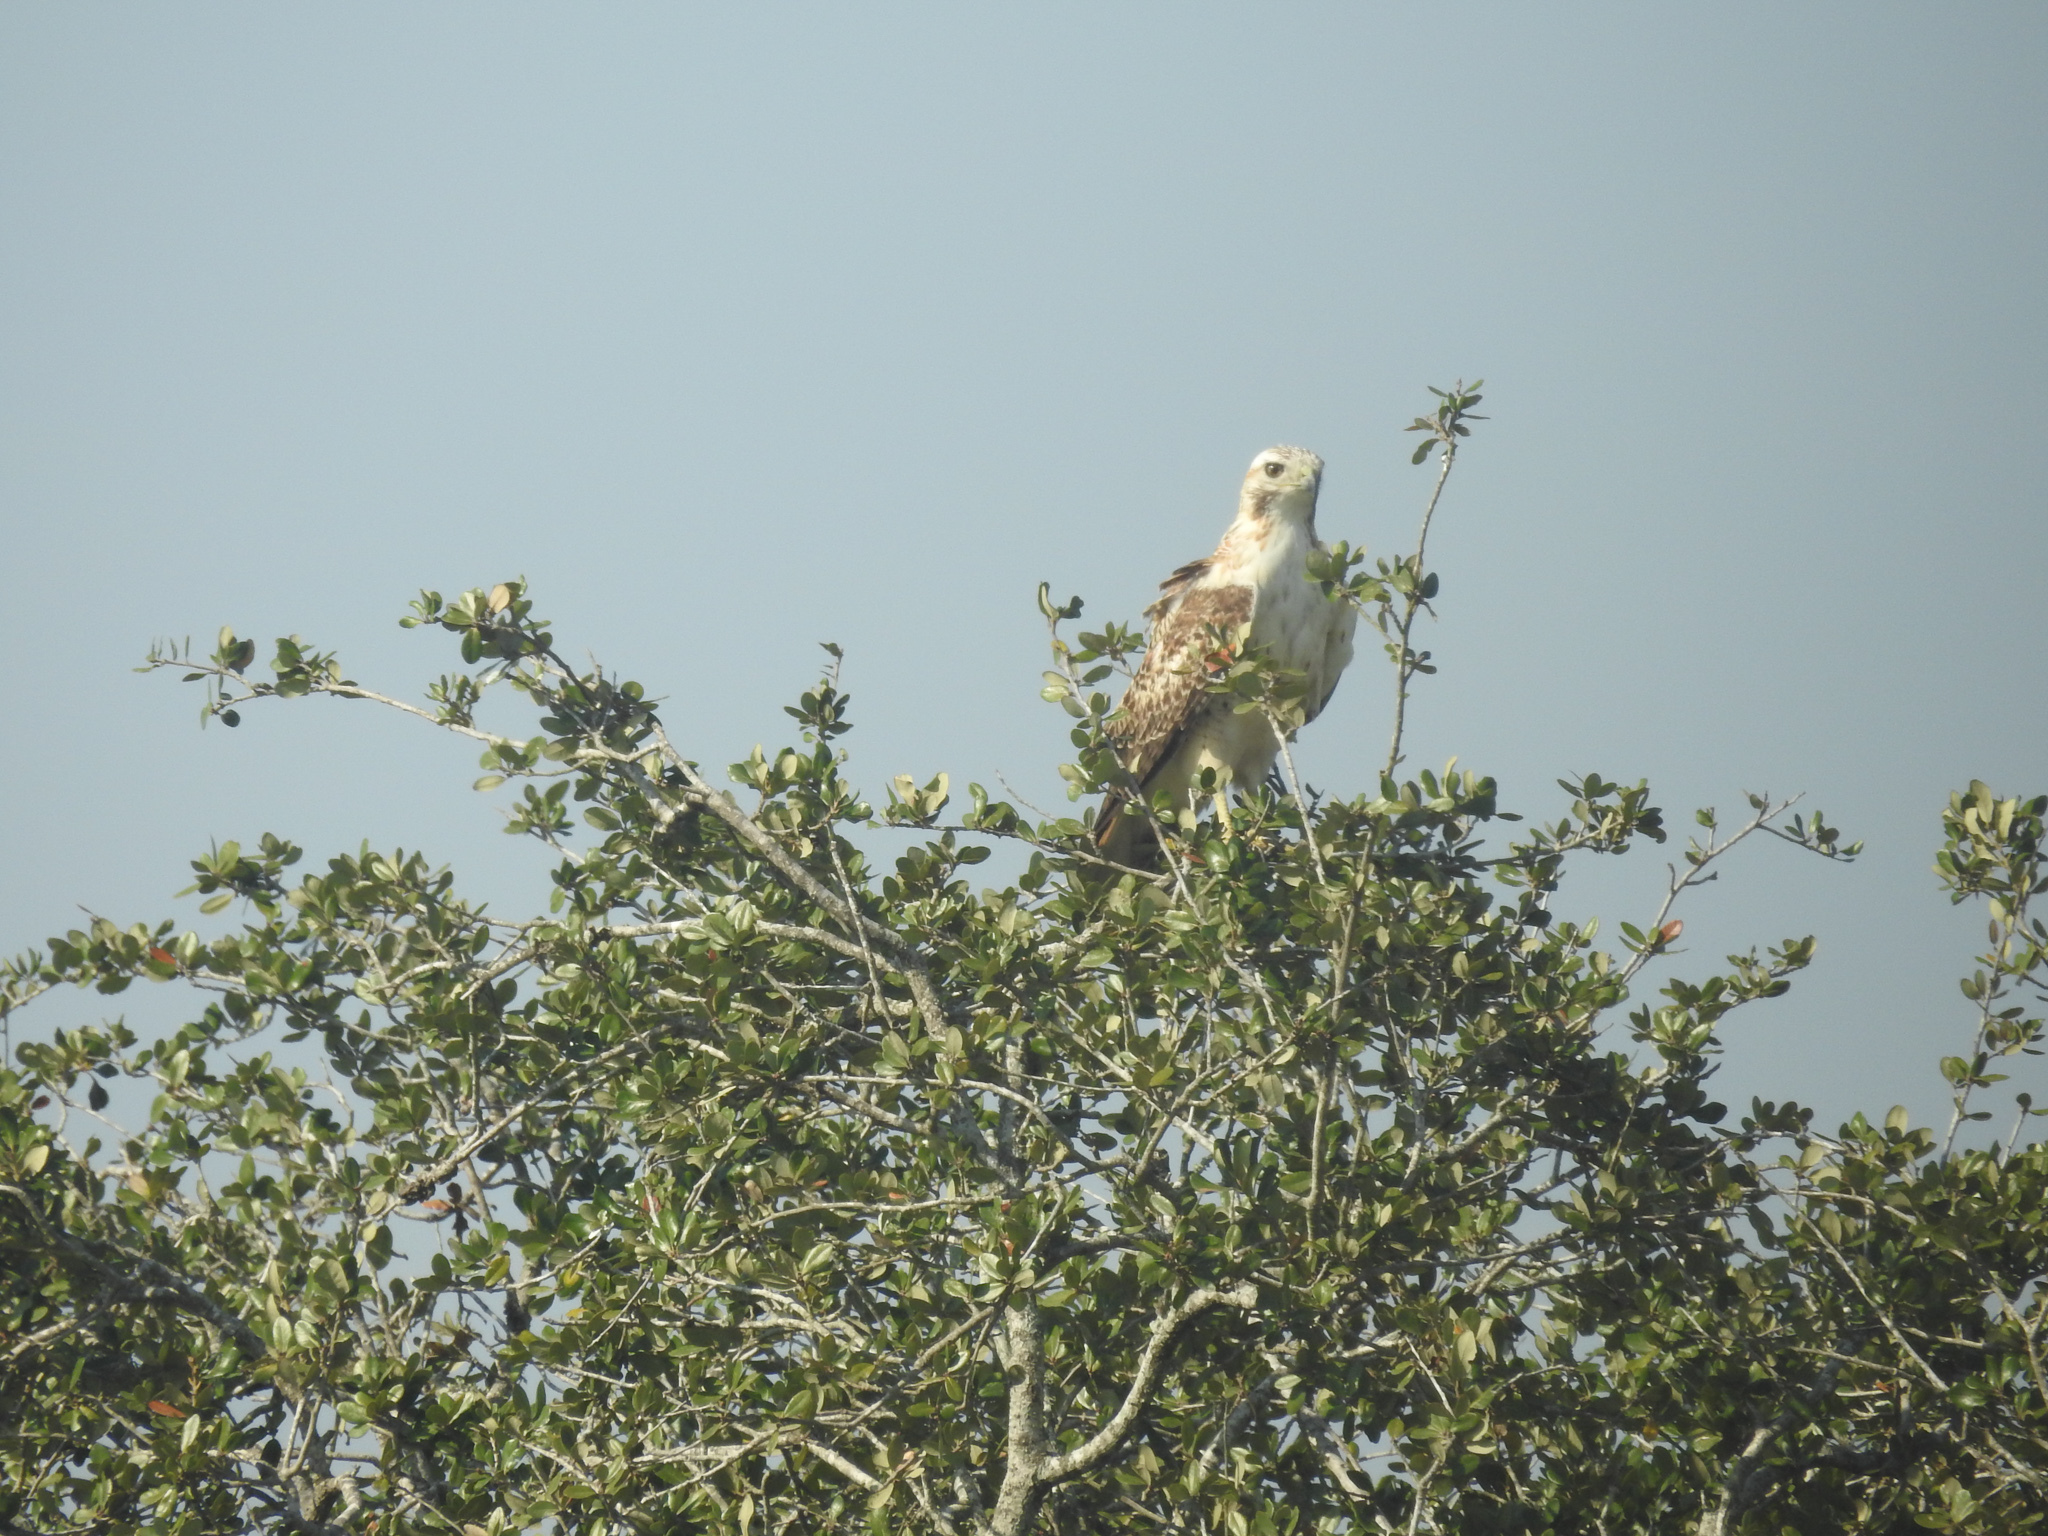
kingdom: Animalia
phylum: Chordata
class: Aves
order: Accipitriformes
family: Accipitridae
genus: Buteo
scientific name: Buteo jamaicensis
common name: Red-tailed hawk
